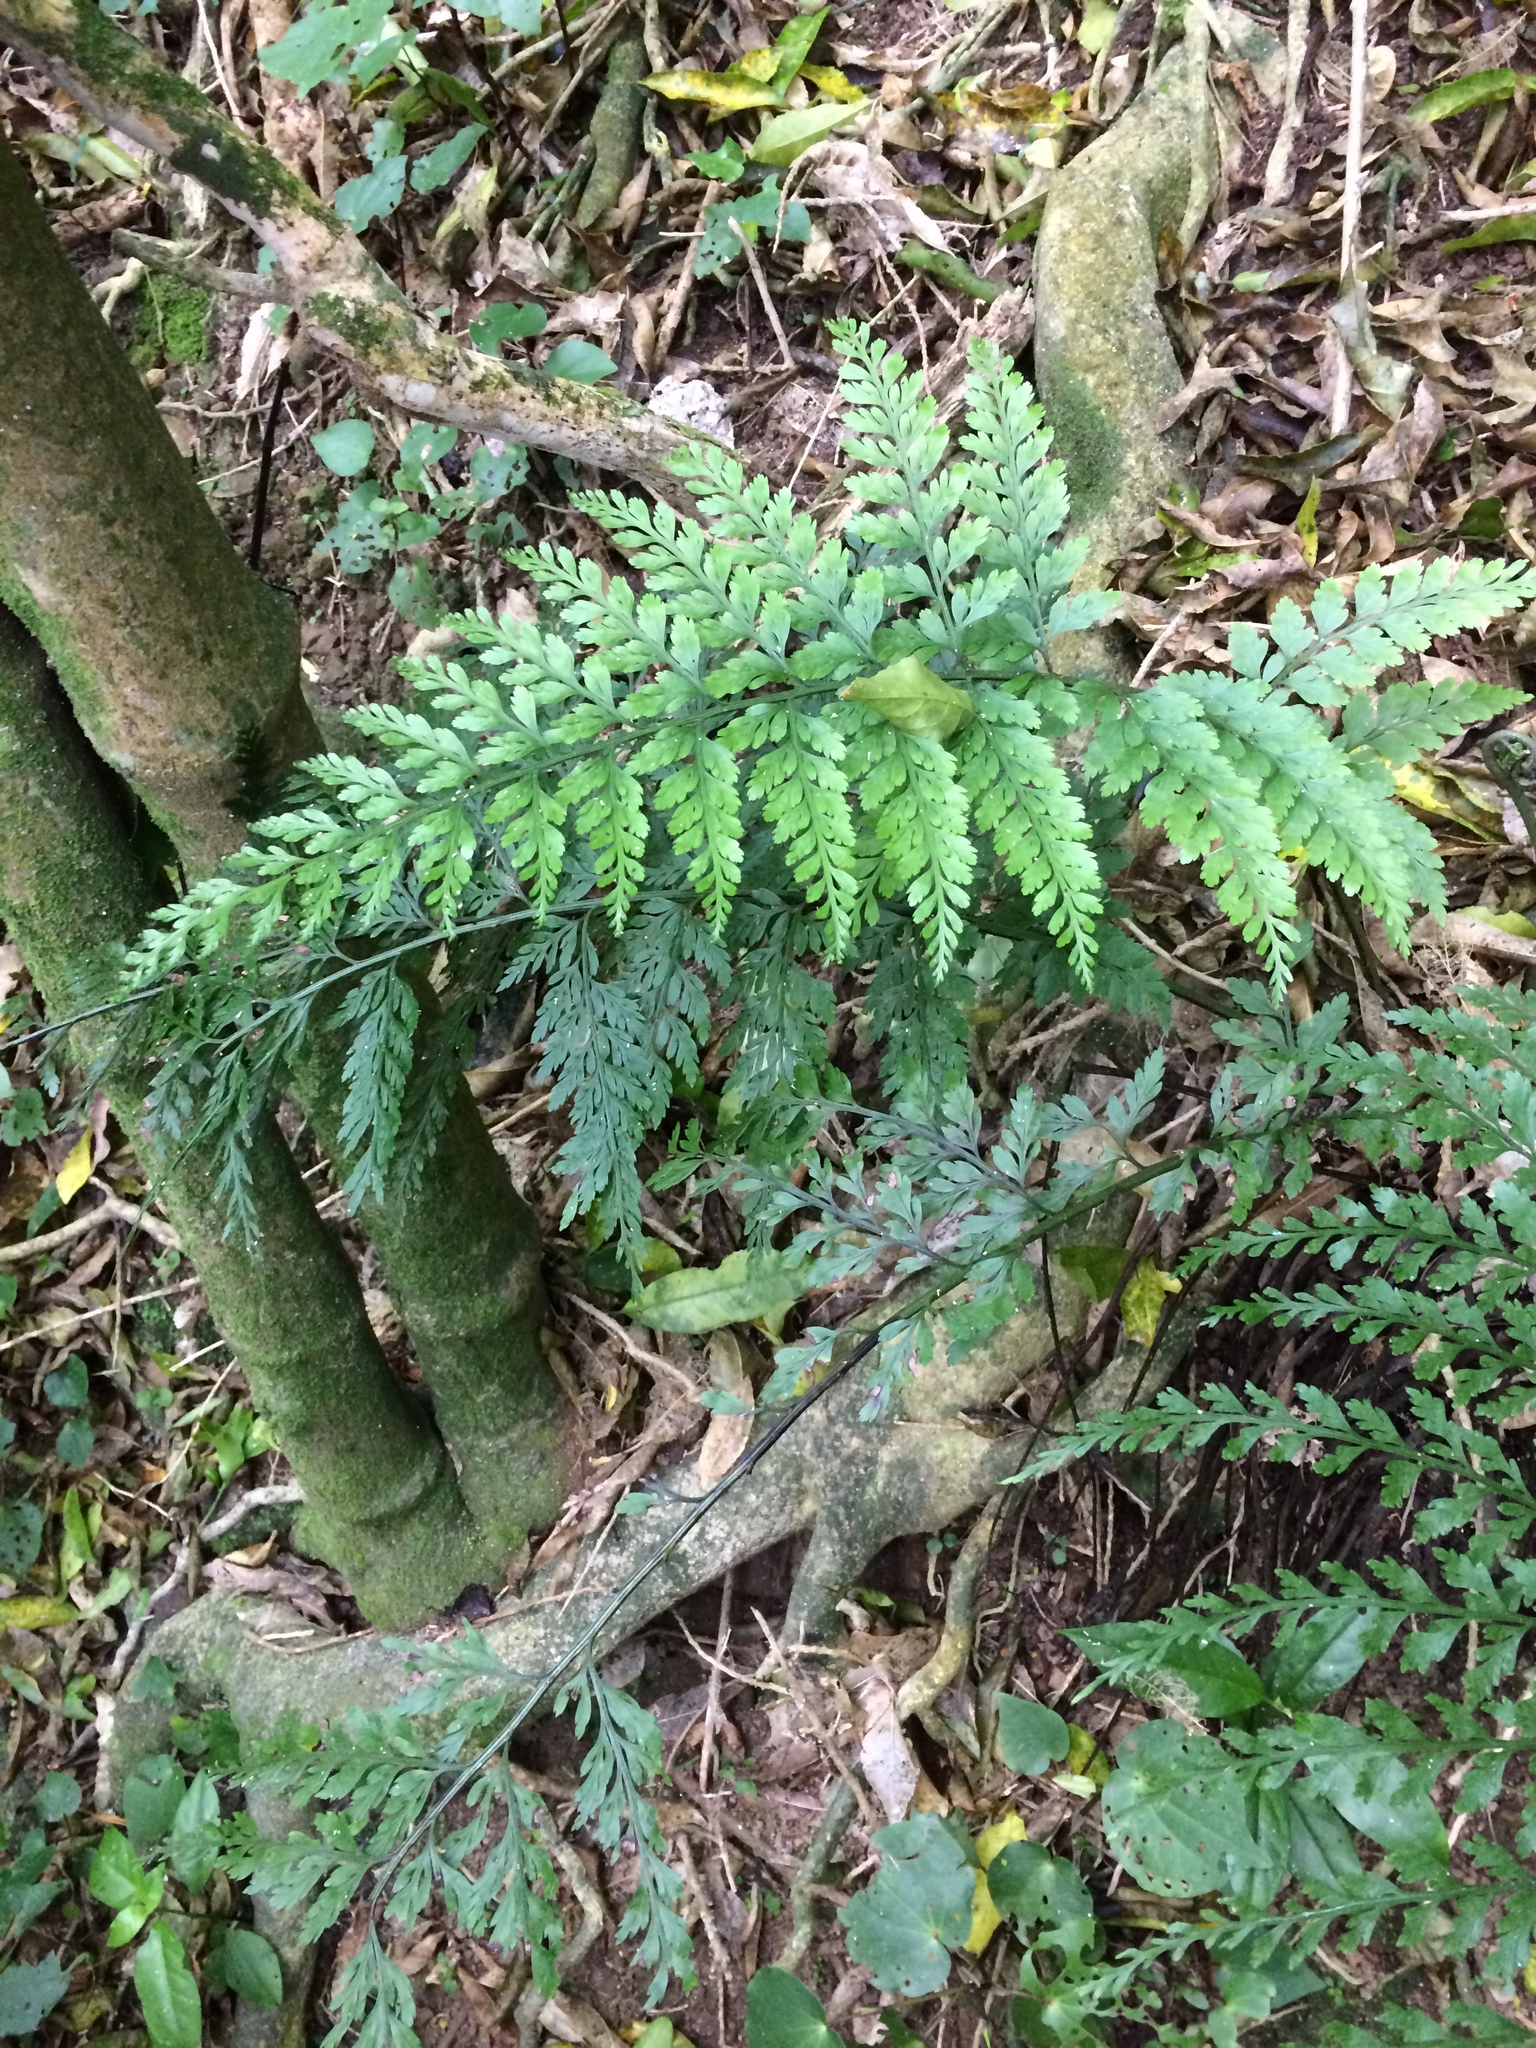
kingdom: Plantae
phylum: Tracheophyta
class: Polypodiopsida
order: Polypodiales
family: Aspleniaceae
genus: Asplenium
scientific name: Asplenium
